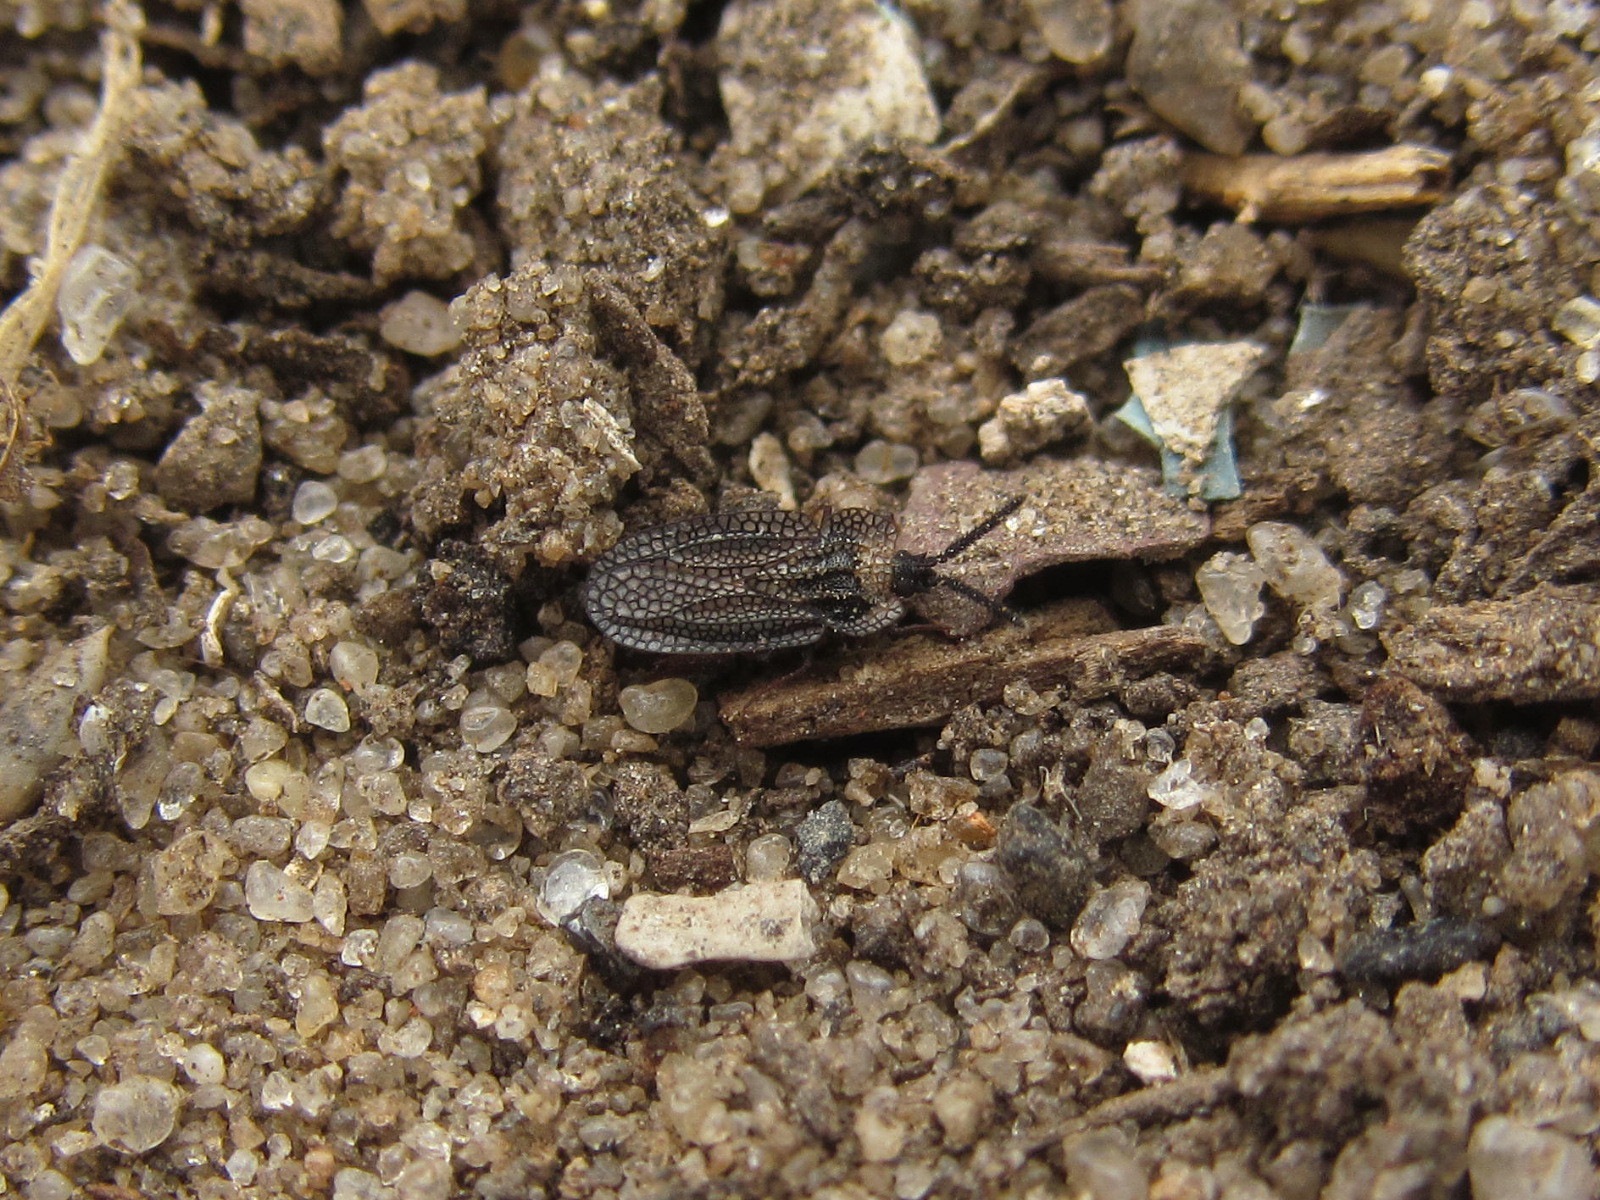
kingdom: Animalia
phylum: Arthropoda
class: Insecta
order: Hemiptera
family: Tingidae
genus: Dictyonota
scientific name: Dictyonota tricornis
